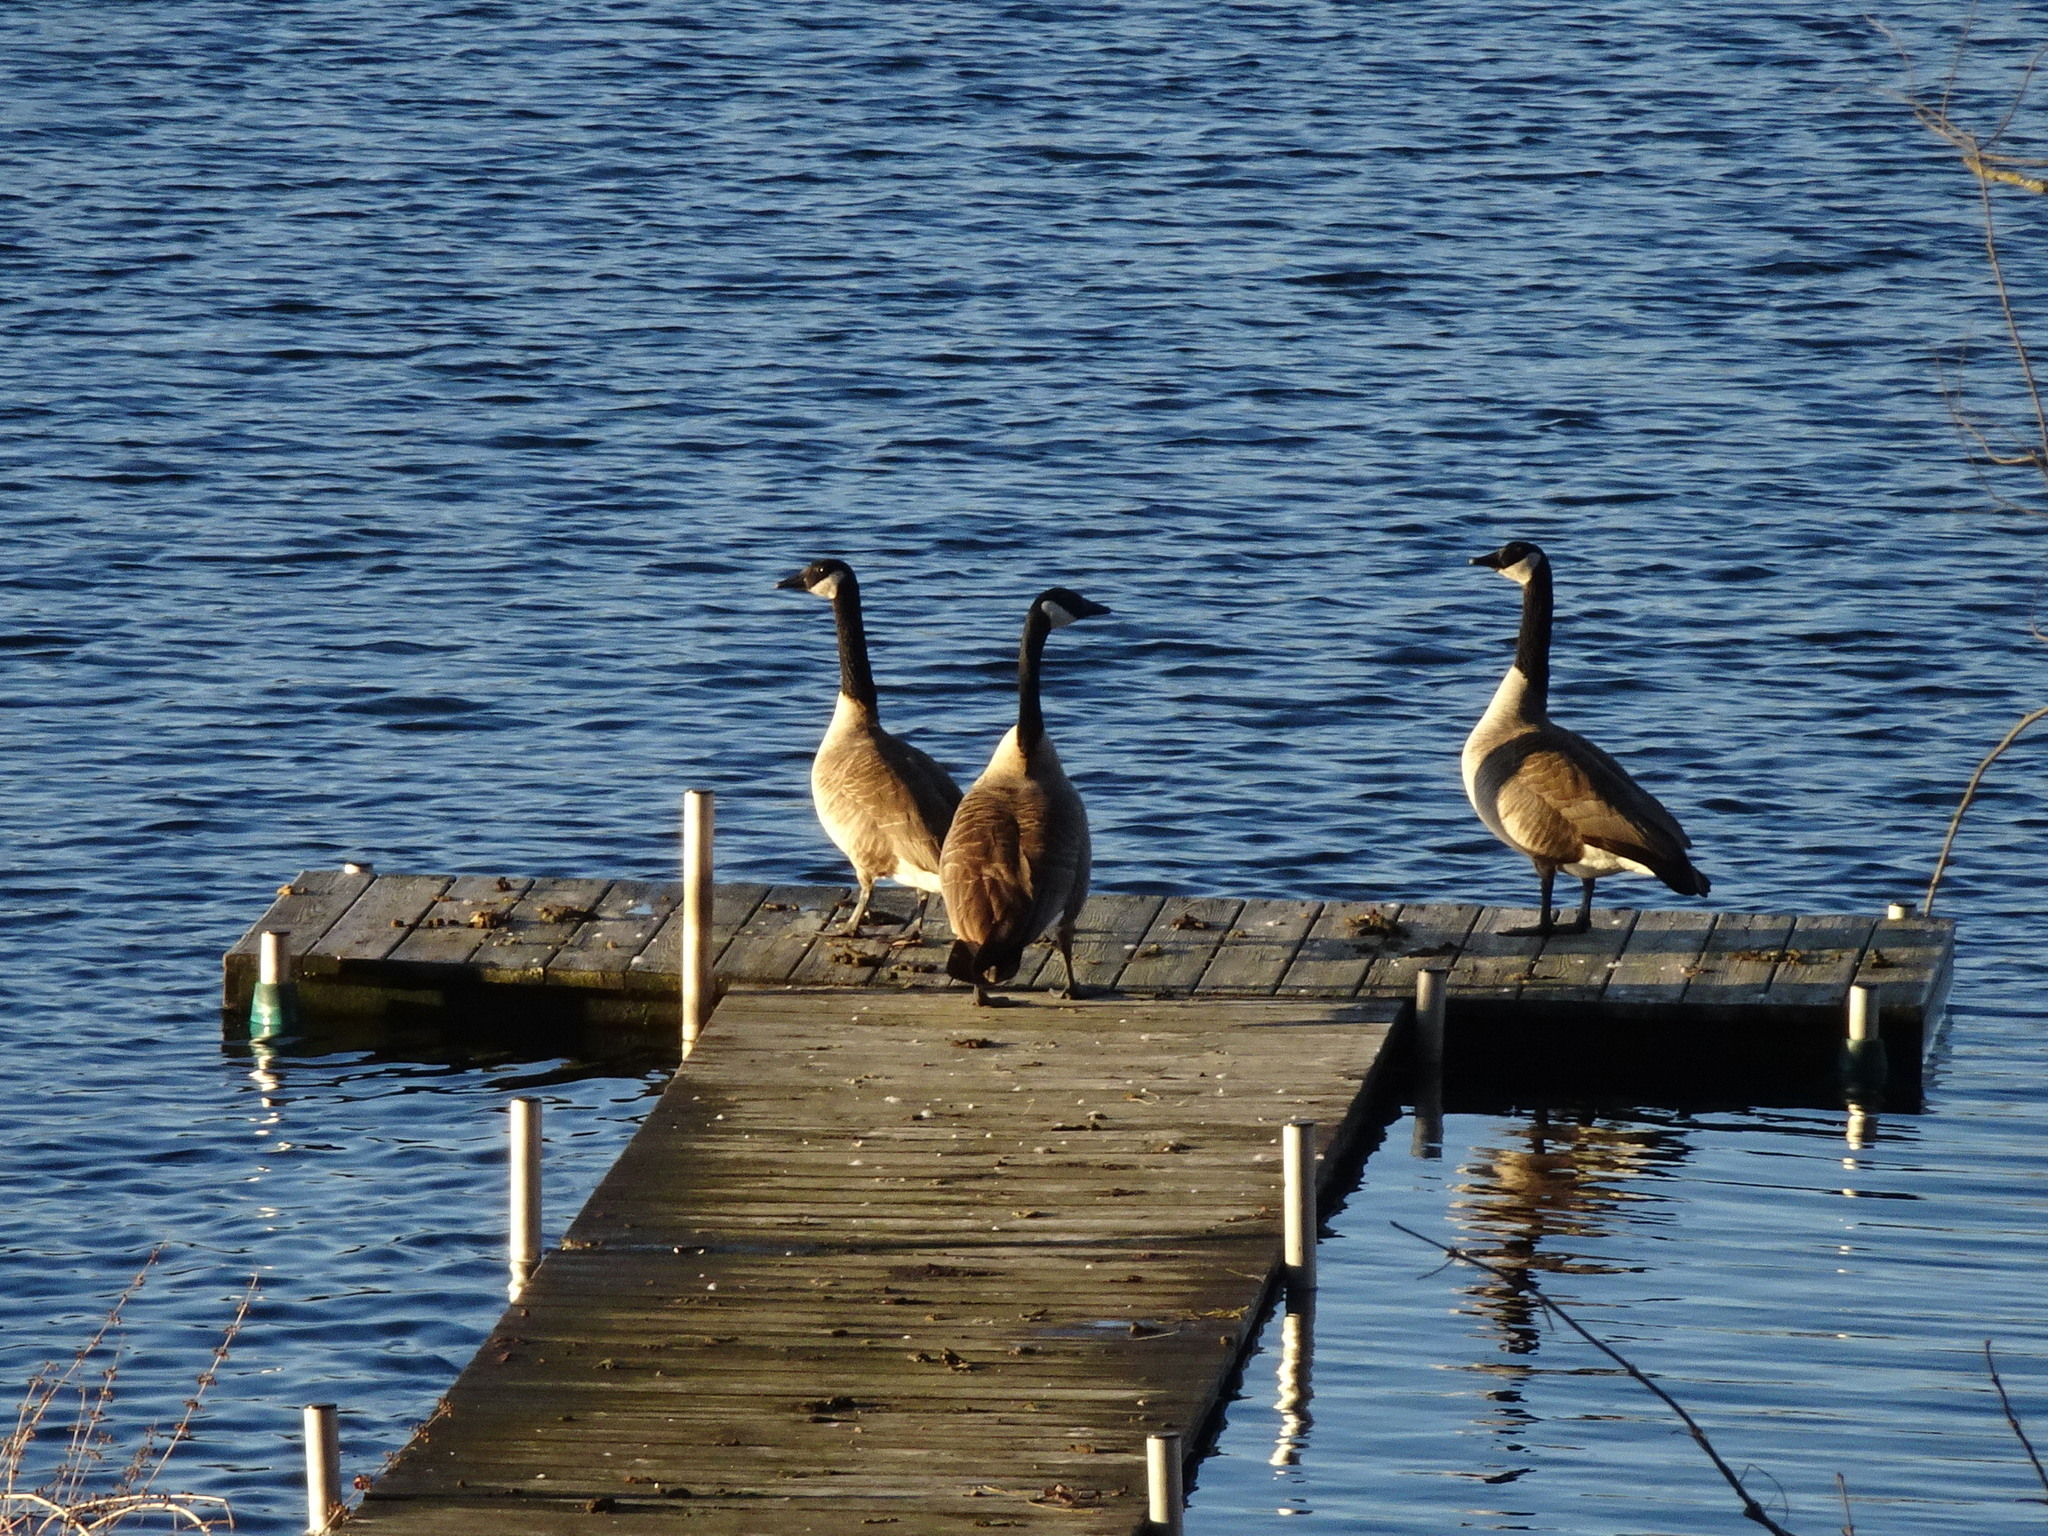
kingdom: Animalia
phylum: Chordata
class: Aves
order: Anseriformes
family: Anatidae
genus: Branta
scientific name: Branta canadensis
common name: Canada goose
